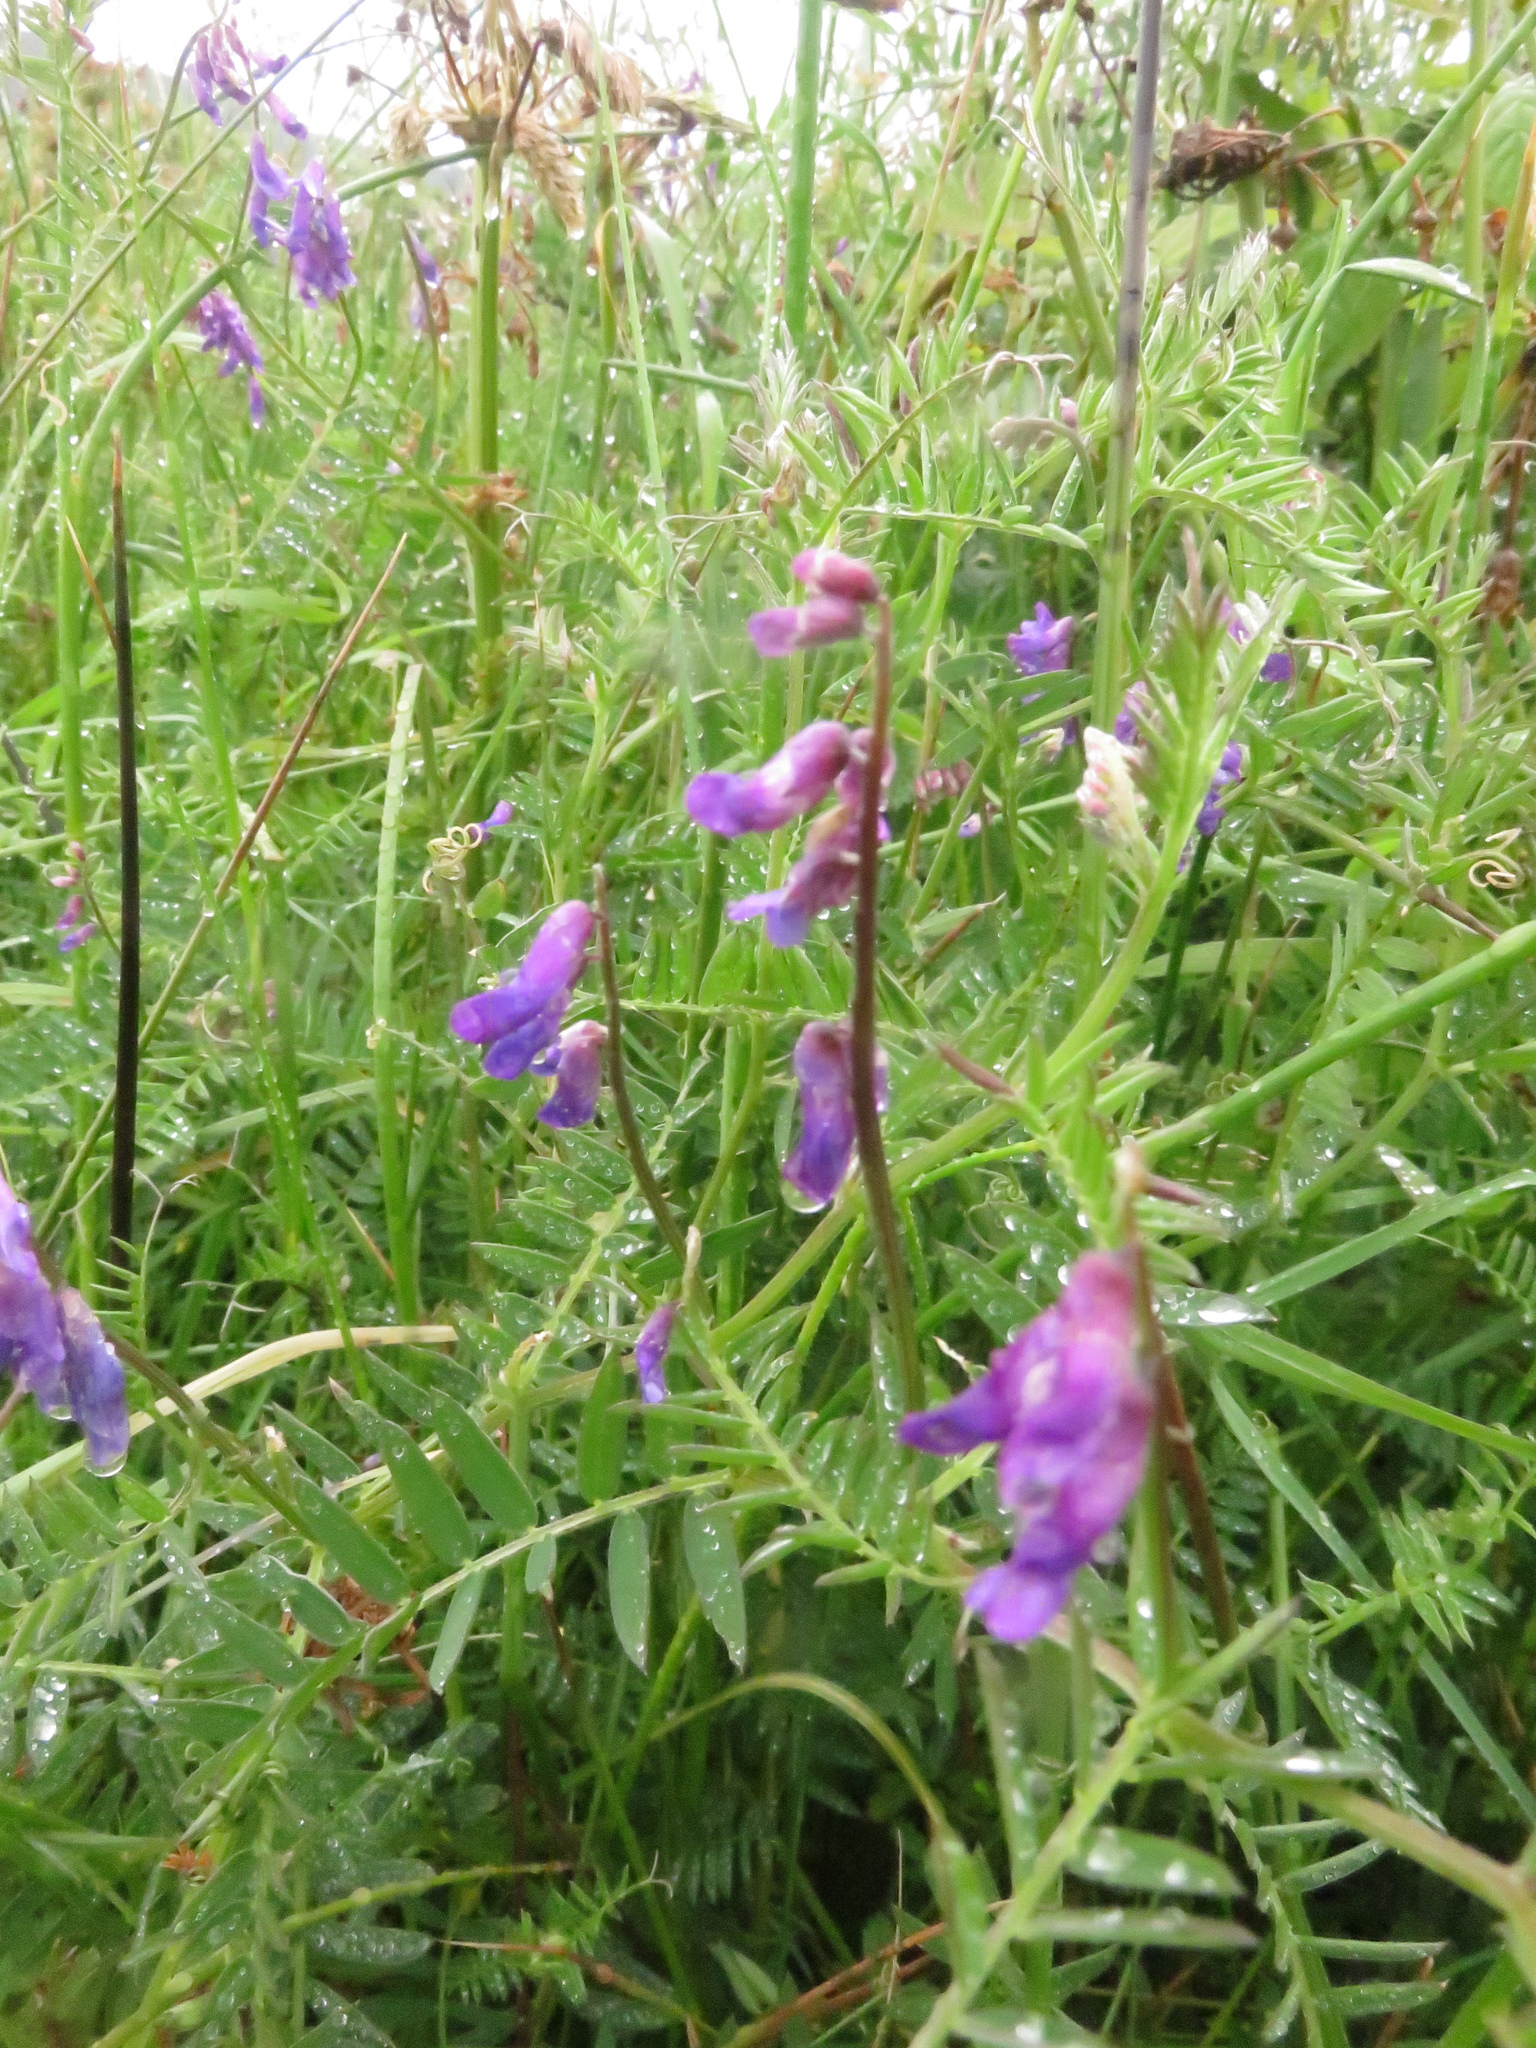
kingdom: Plantae
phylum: Tracheophyta
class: Magnoliopsida
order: Fabales
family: Fabaceae
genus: Vicia
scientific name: Vicia cracca
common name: Bird vetch
